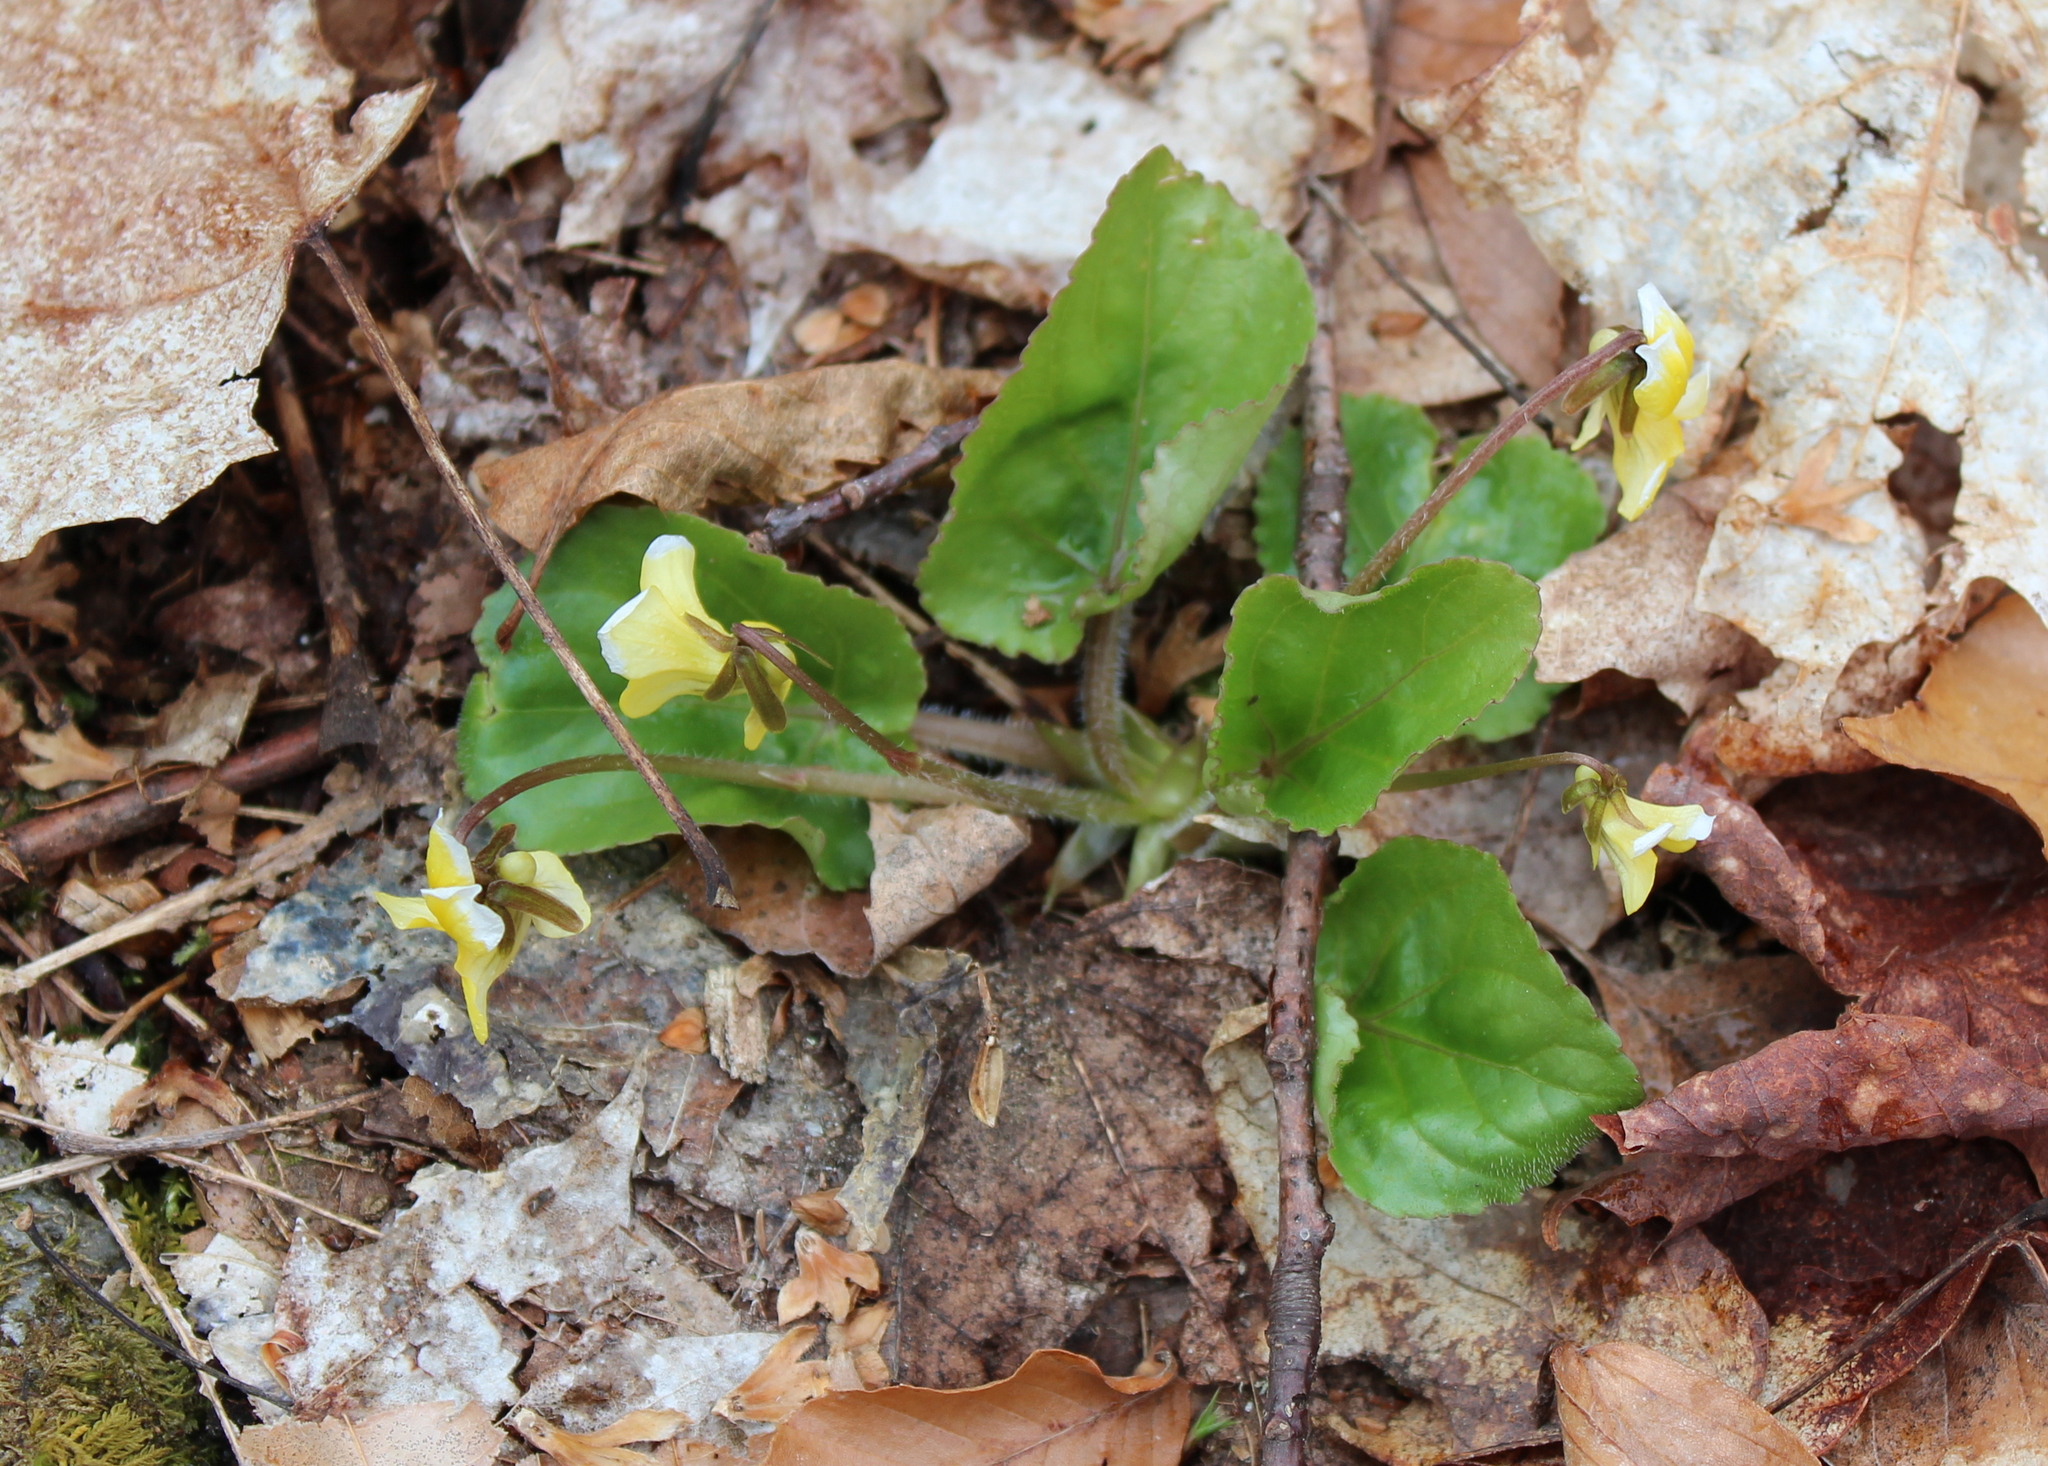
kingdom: Plantae
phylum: Tracheophyta
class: Magnoliopsida
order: Malpighiales
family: Violaceae
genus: Viola
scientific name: Viola rotundifolia
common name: Early yellow violet
